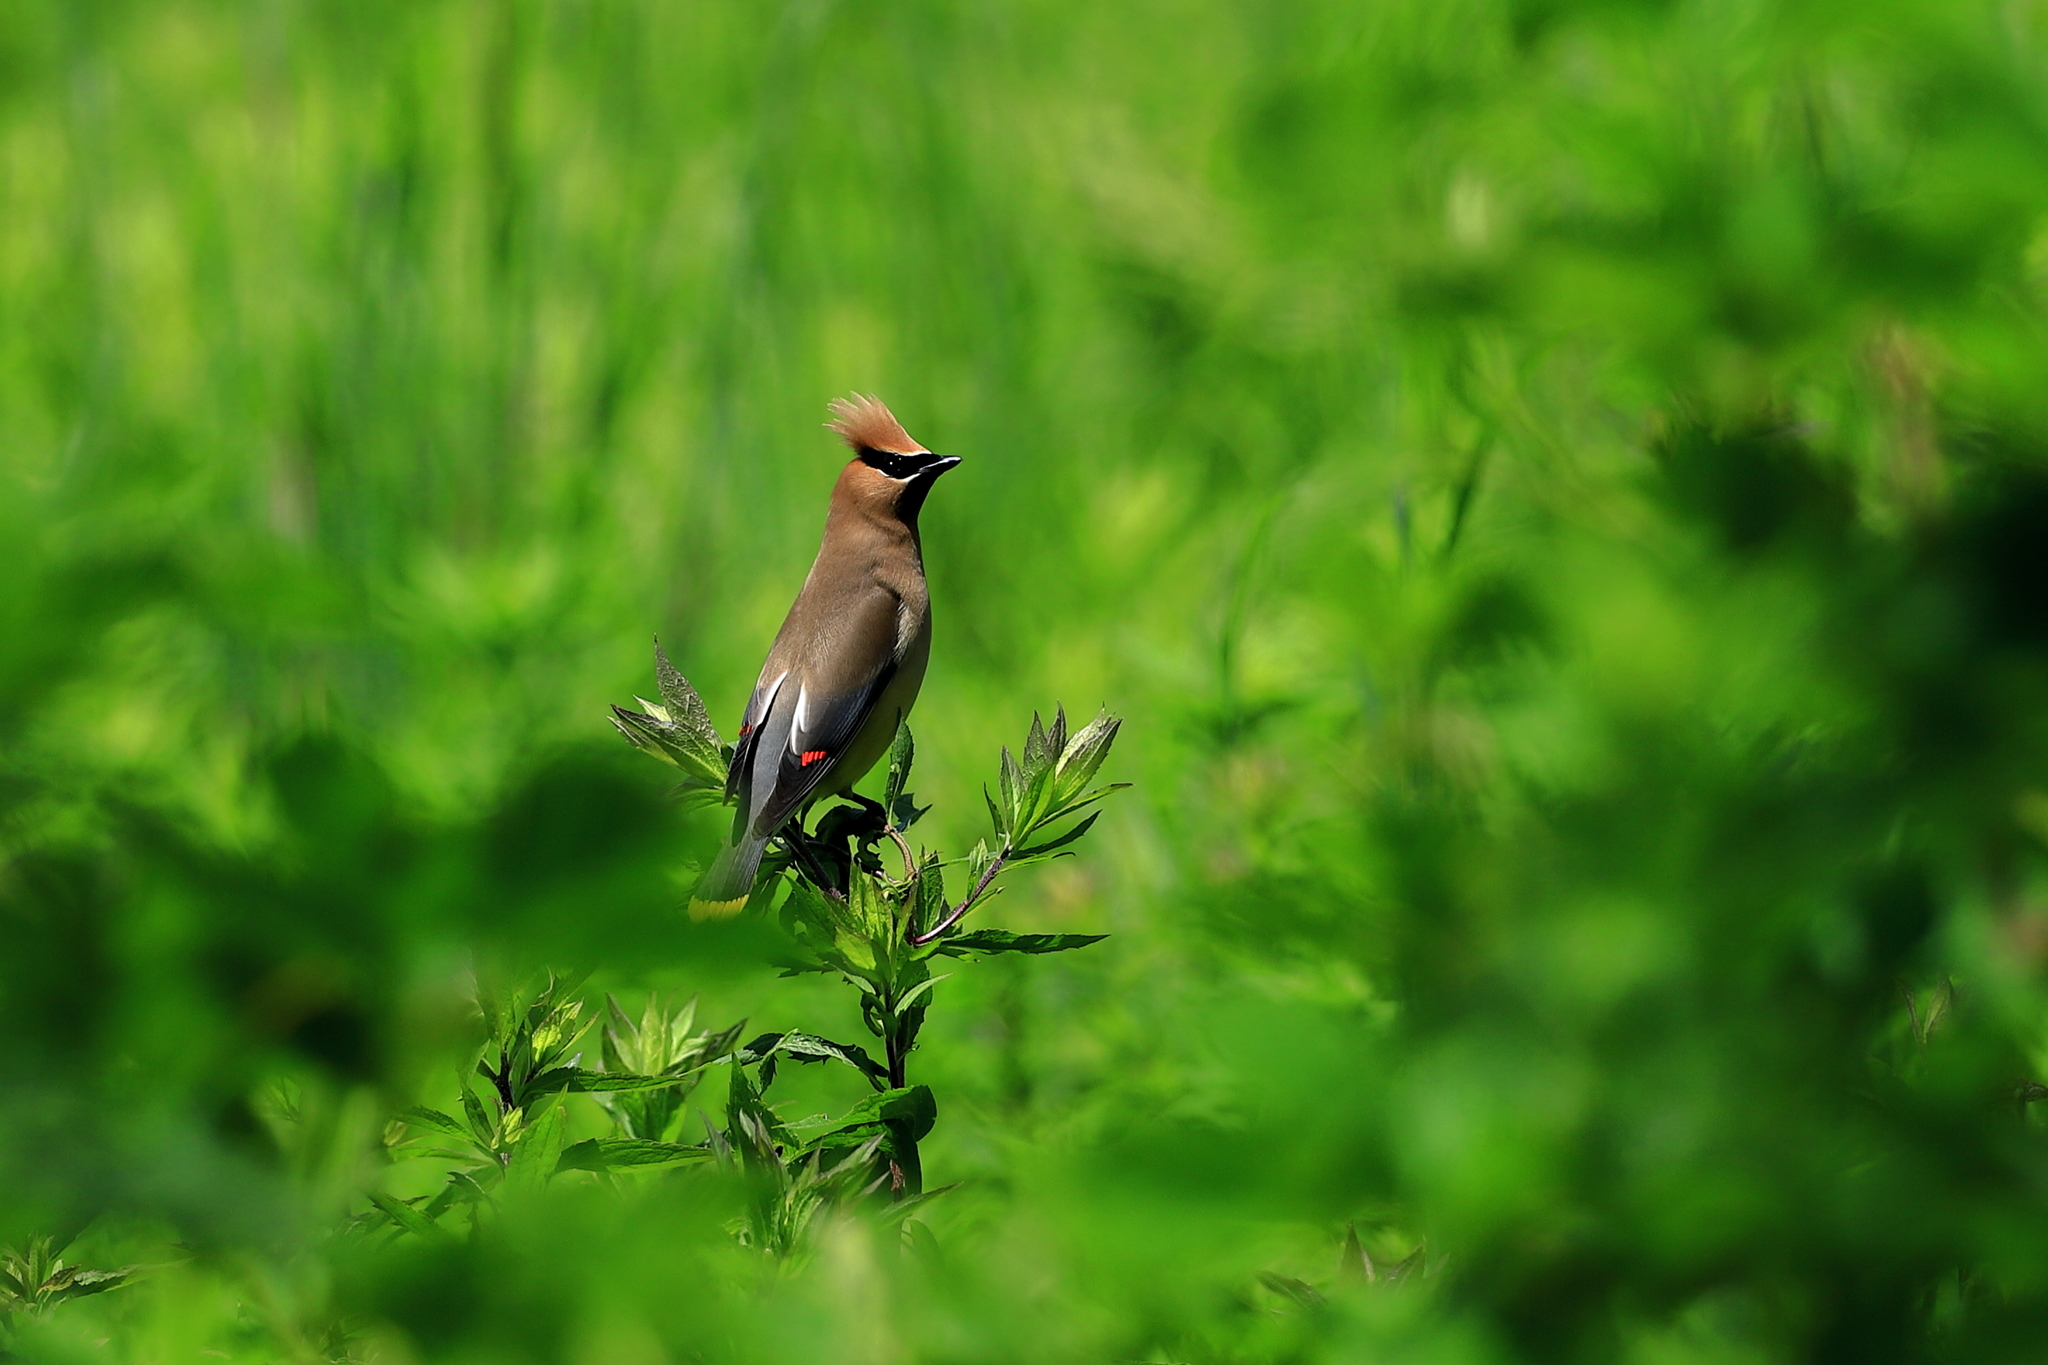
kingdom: Animalia
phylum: Chordata
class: Aves
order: Passeriformes
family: Bombycillidae
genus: Bombycilla
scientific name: Bombycilla cedrorum
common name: Cedar waxwing
